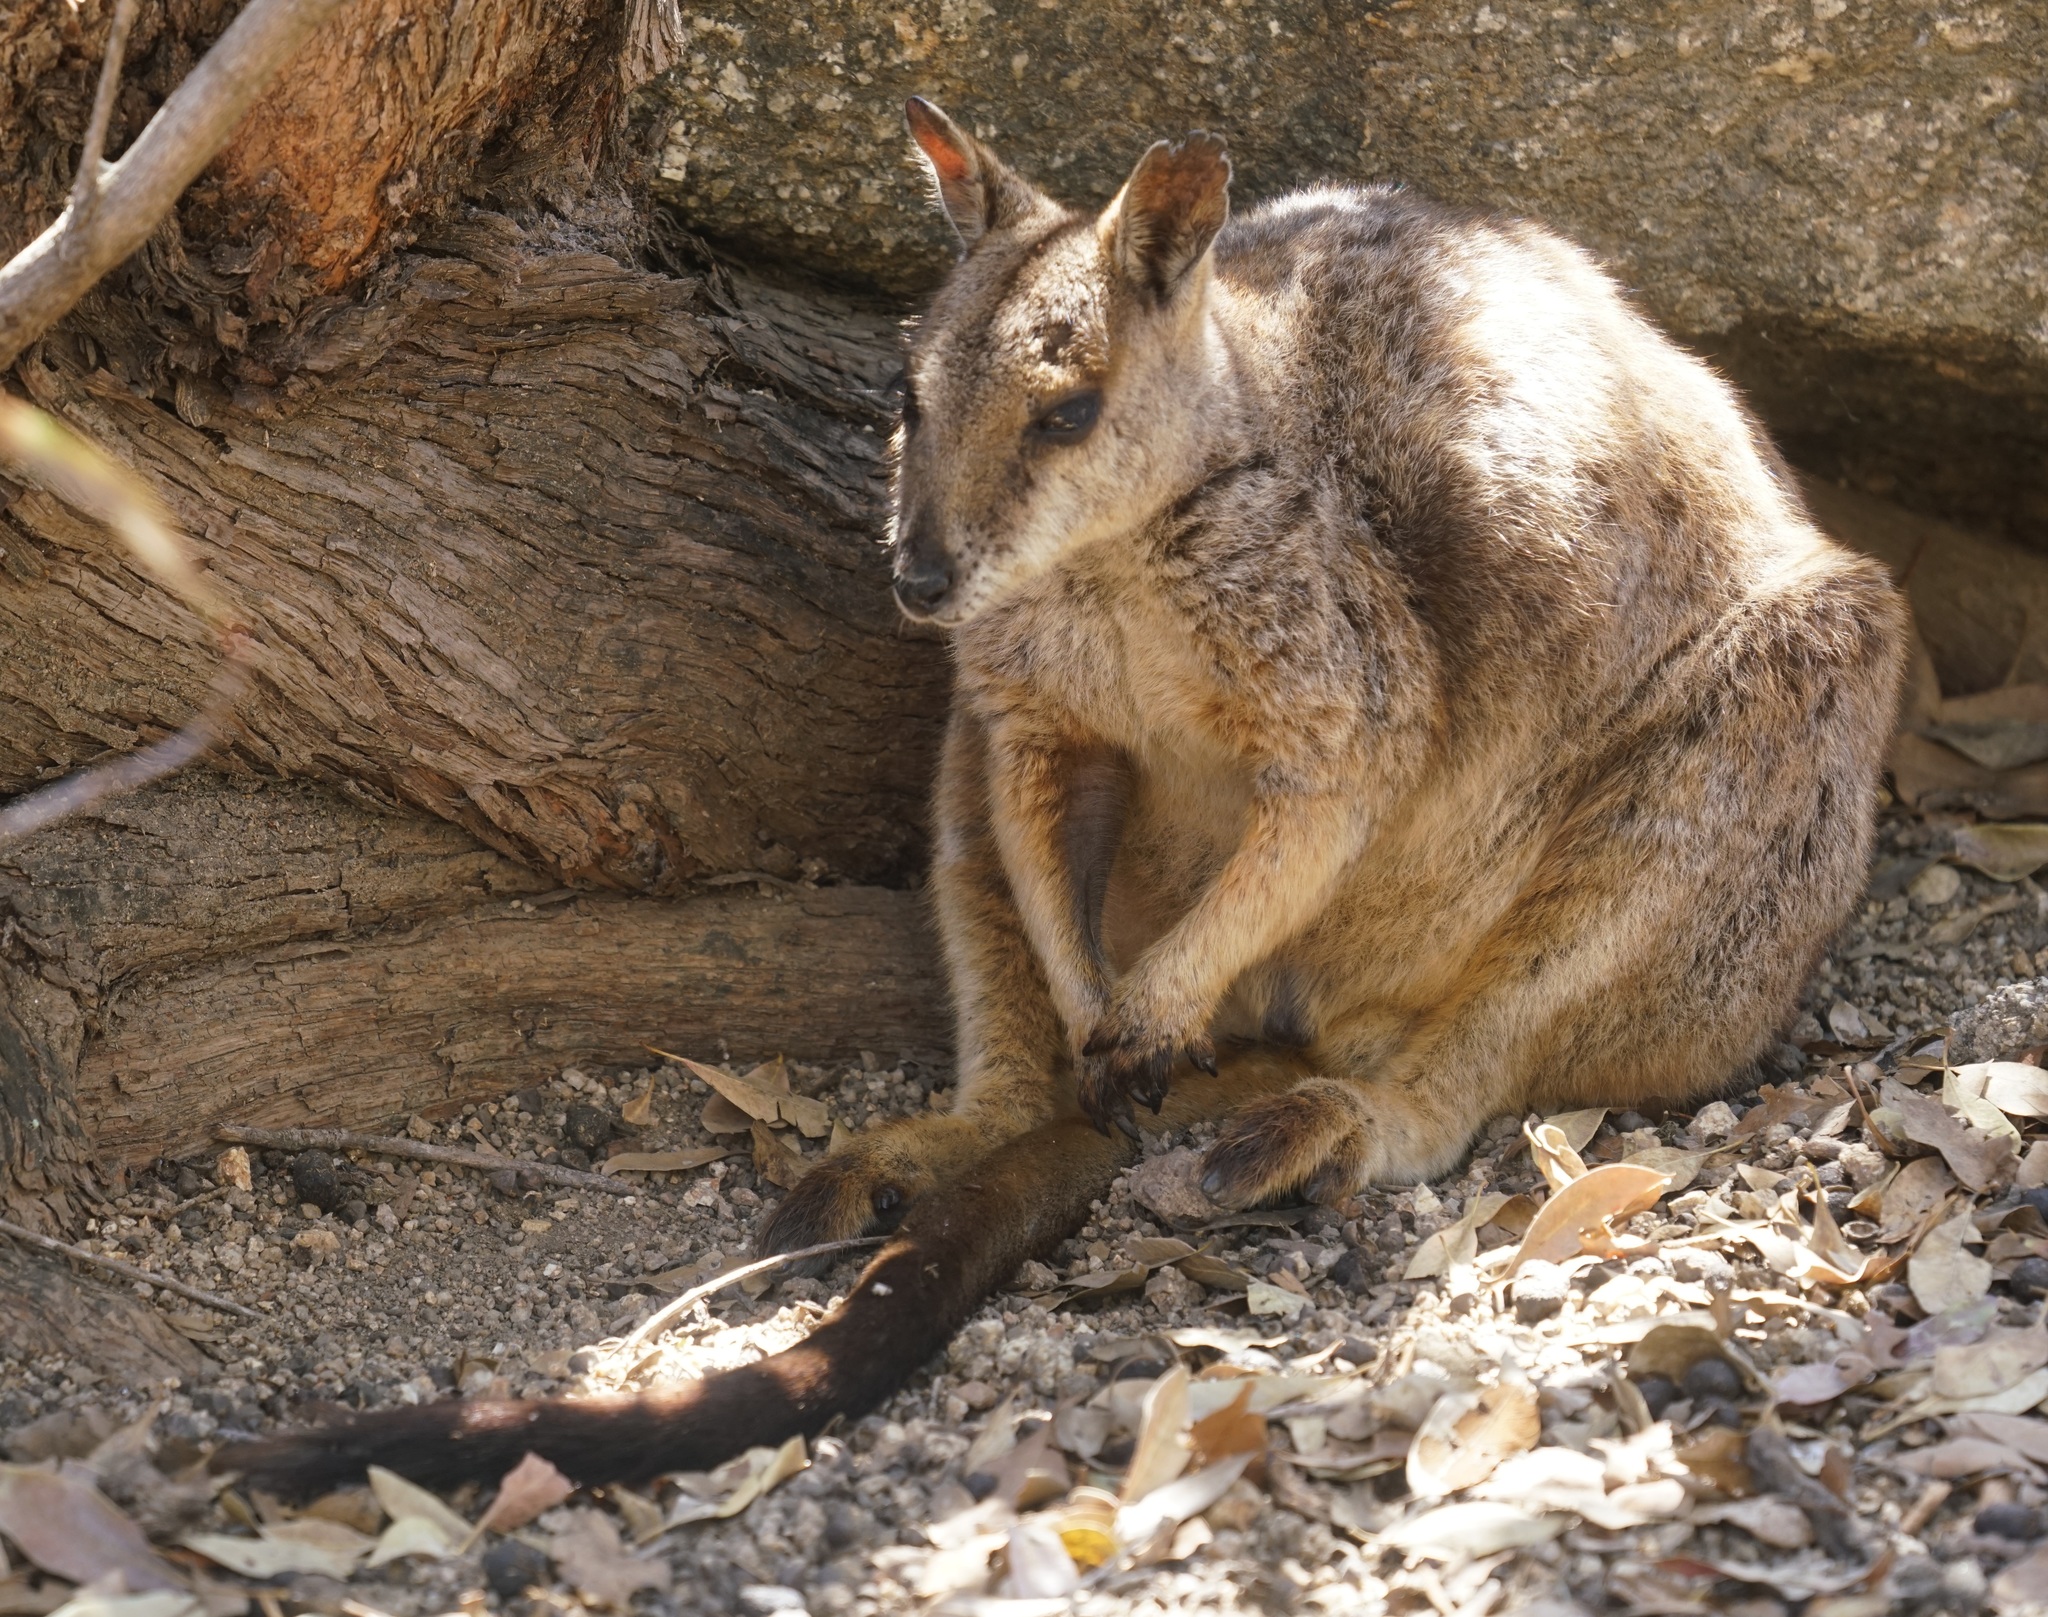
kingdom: Animalia
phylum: Chordata
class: Mammalia
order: Diprotodontia
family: Macropodidae
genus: Petrogale
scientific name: Petrogale mareeba
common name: Mareeba rock-wallaby
